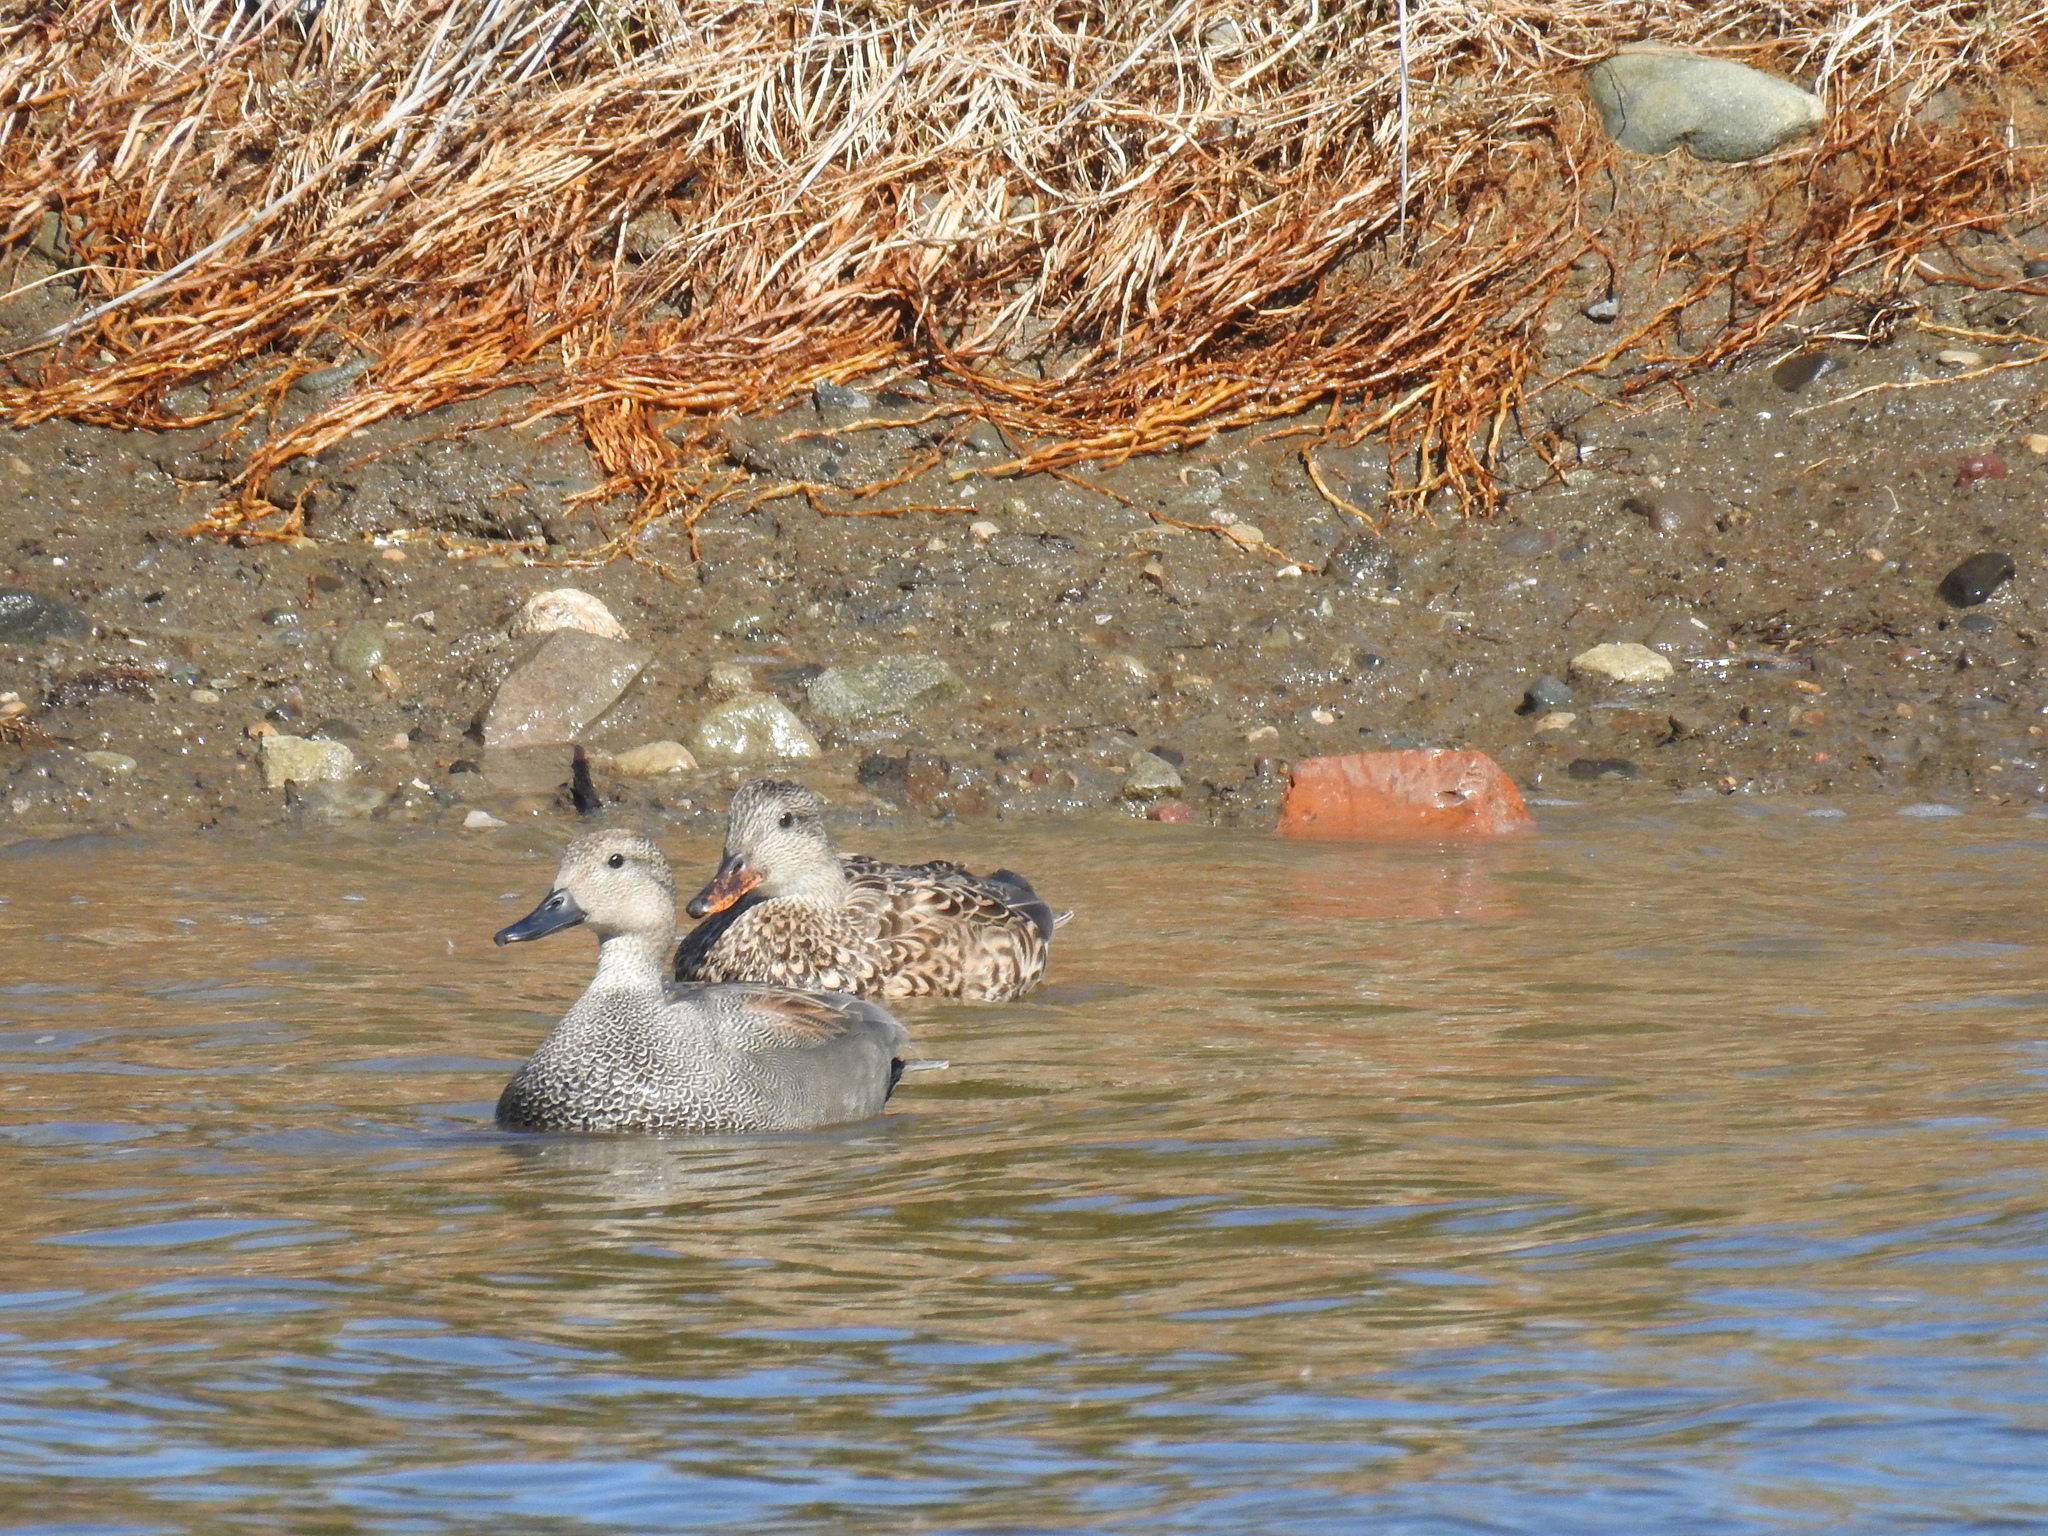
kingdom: Animalia
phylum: Chordata
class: Aves
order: Anseriformes
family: Anatidae
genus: Mareca
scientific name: Mareca strepera
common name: Gadwall
